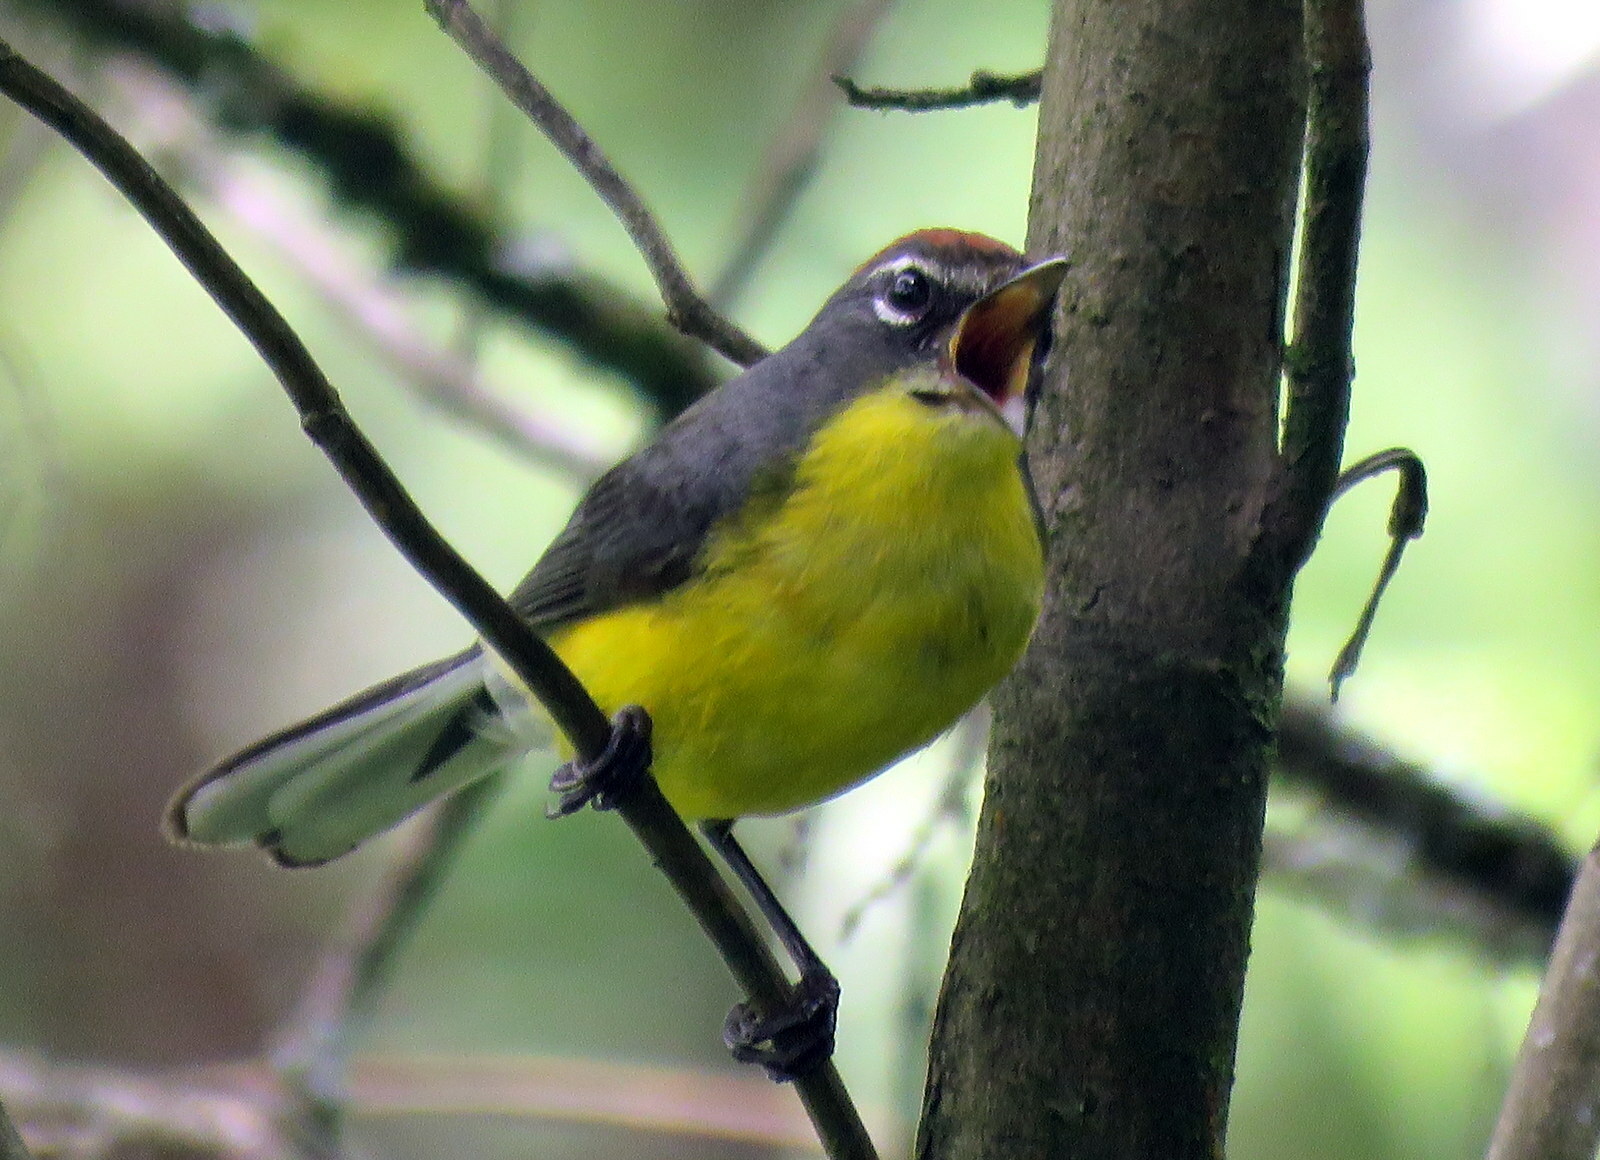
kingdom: Animalia
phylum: Chordata
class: Aves
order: Passeriformes
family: Parulidae
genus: Myioborus
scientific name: Myioborus brunniceps
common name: Brown-capped whitestart
